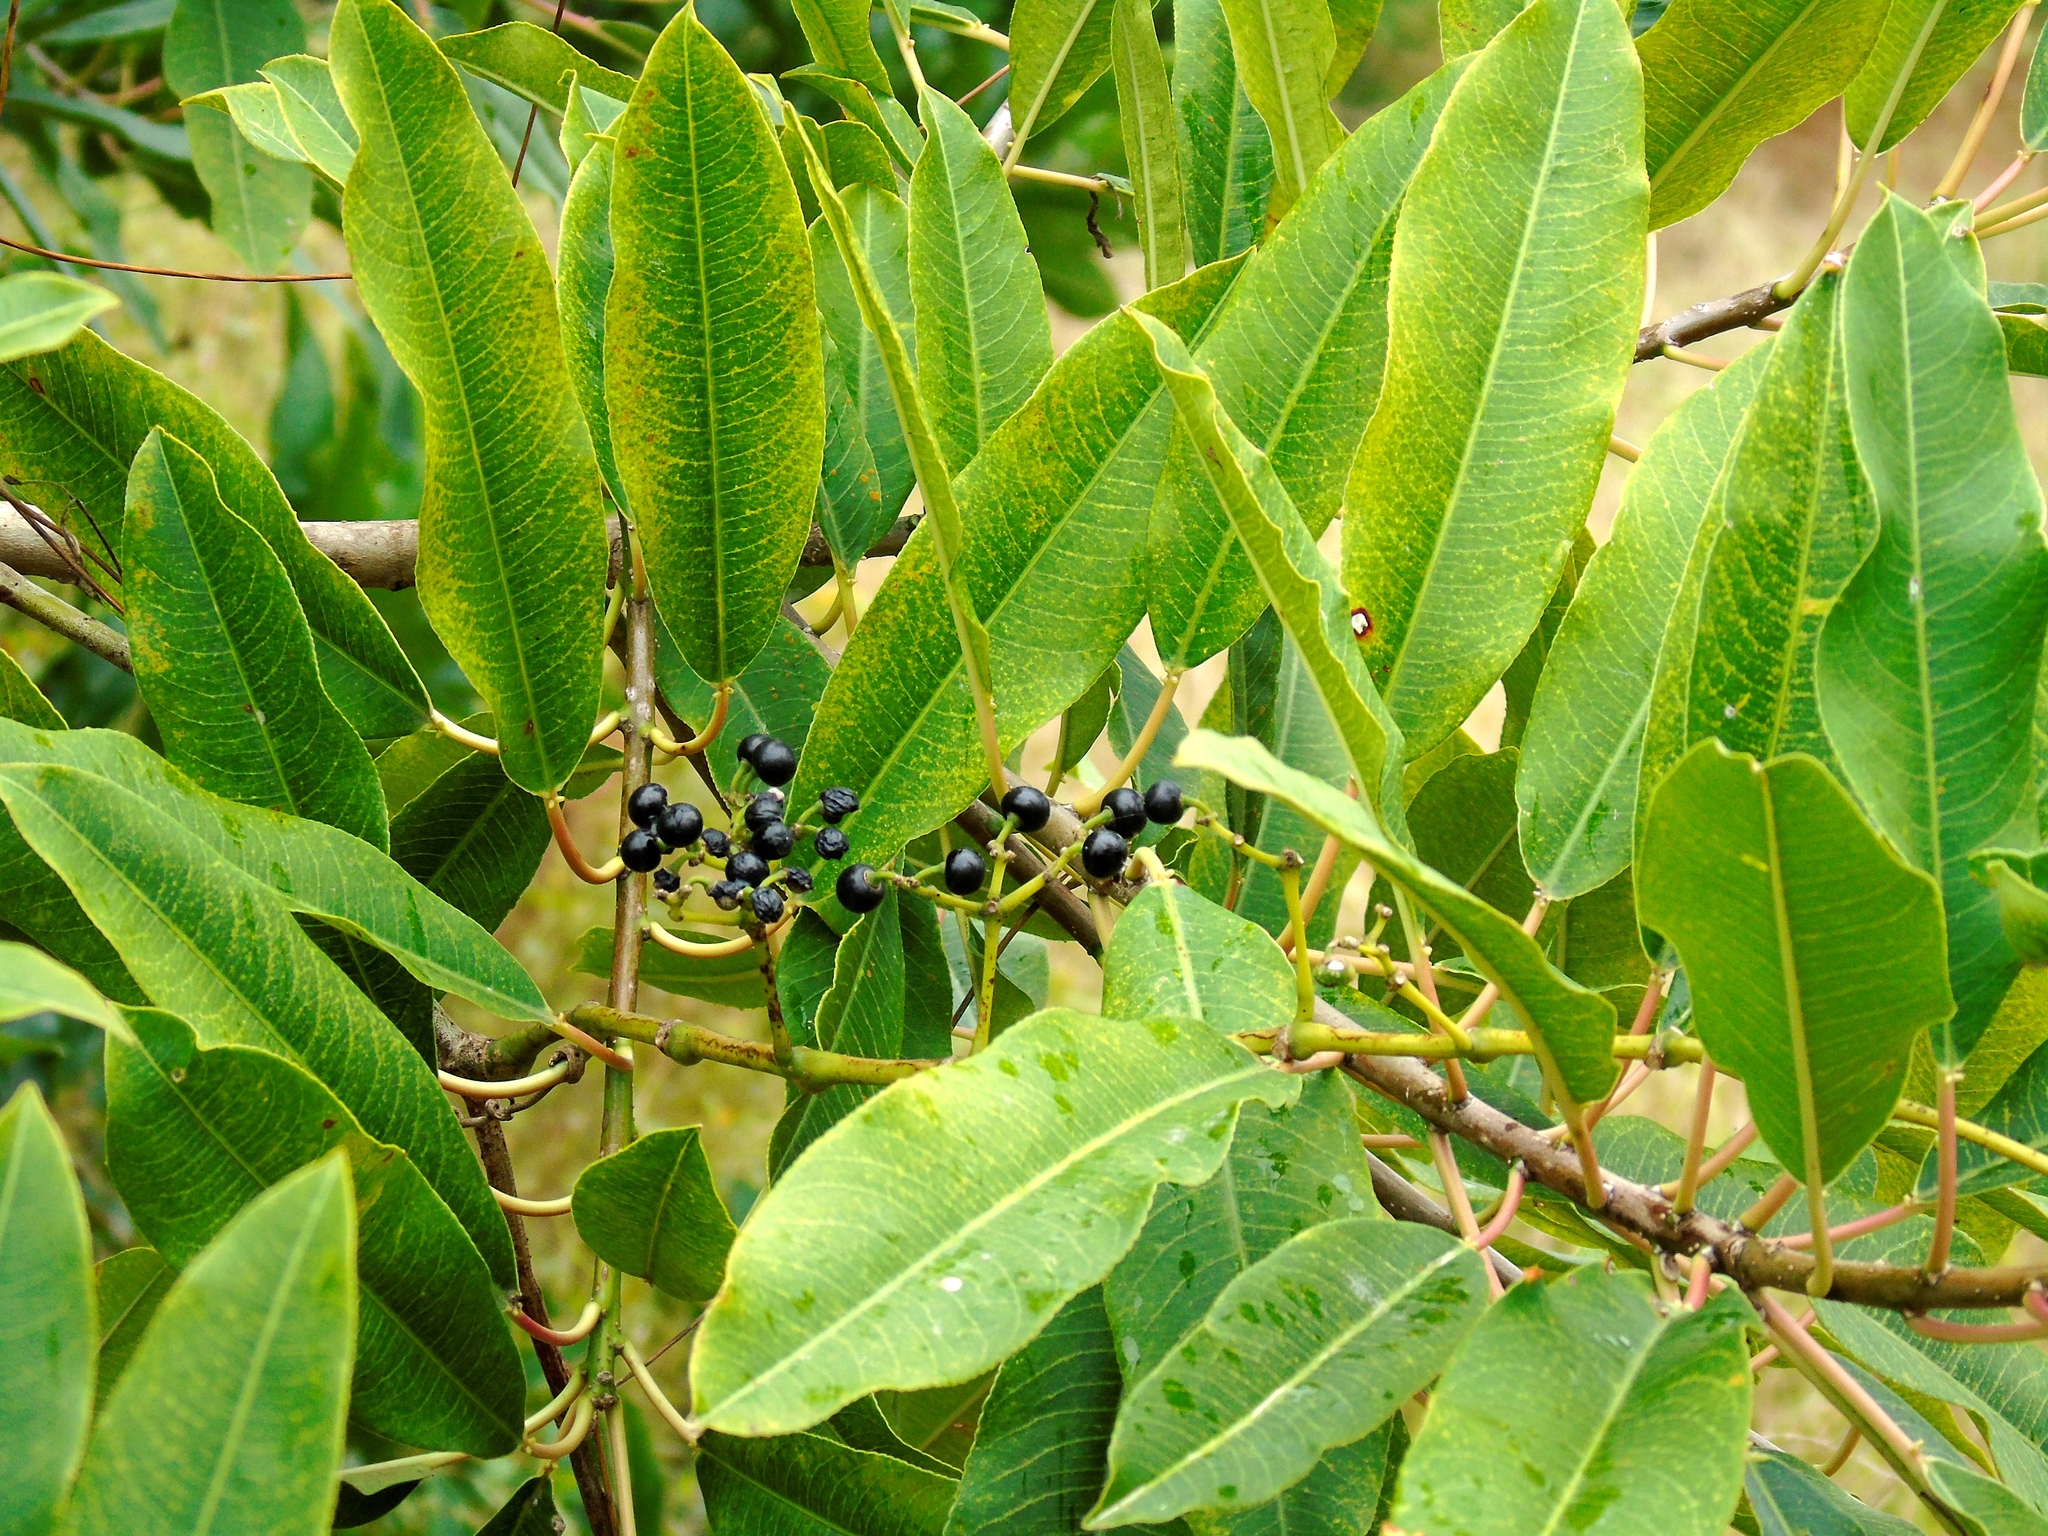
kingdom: Plantae
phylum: Tracheophyta
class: Magnoliopsida
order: Malpighiales
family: Euphorbiaceae
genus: Sapium
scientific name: Sapium lateriflorum
